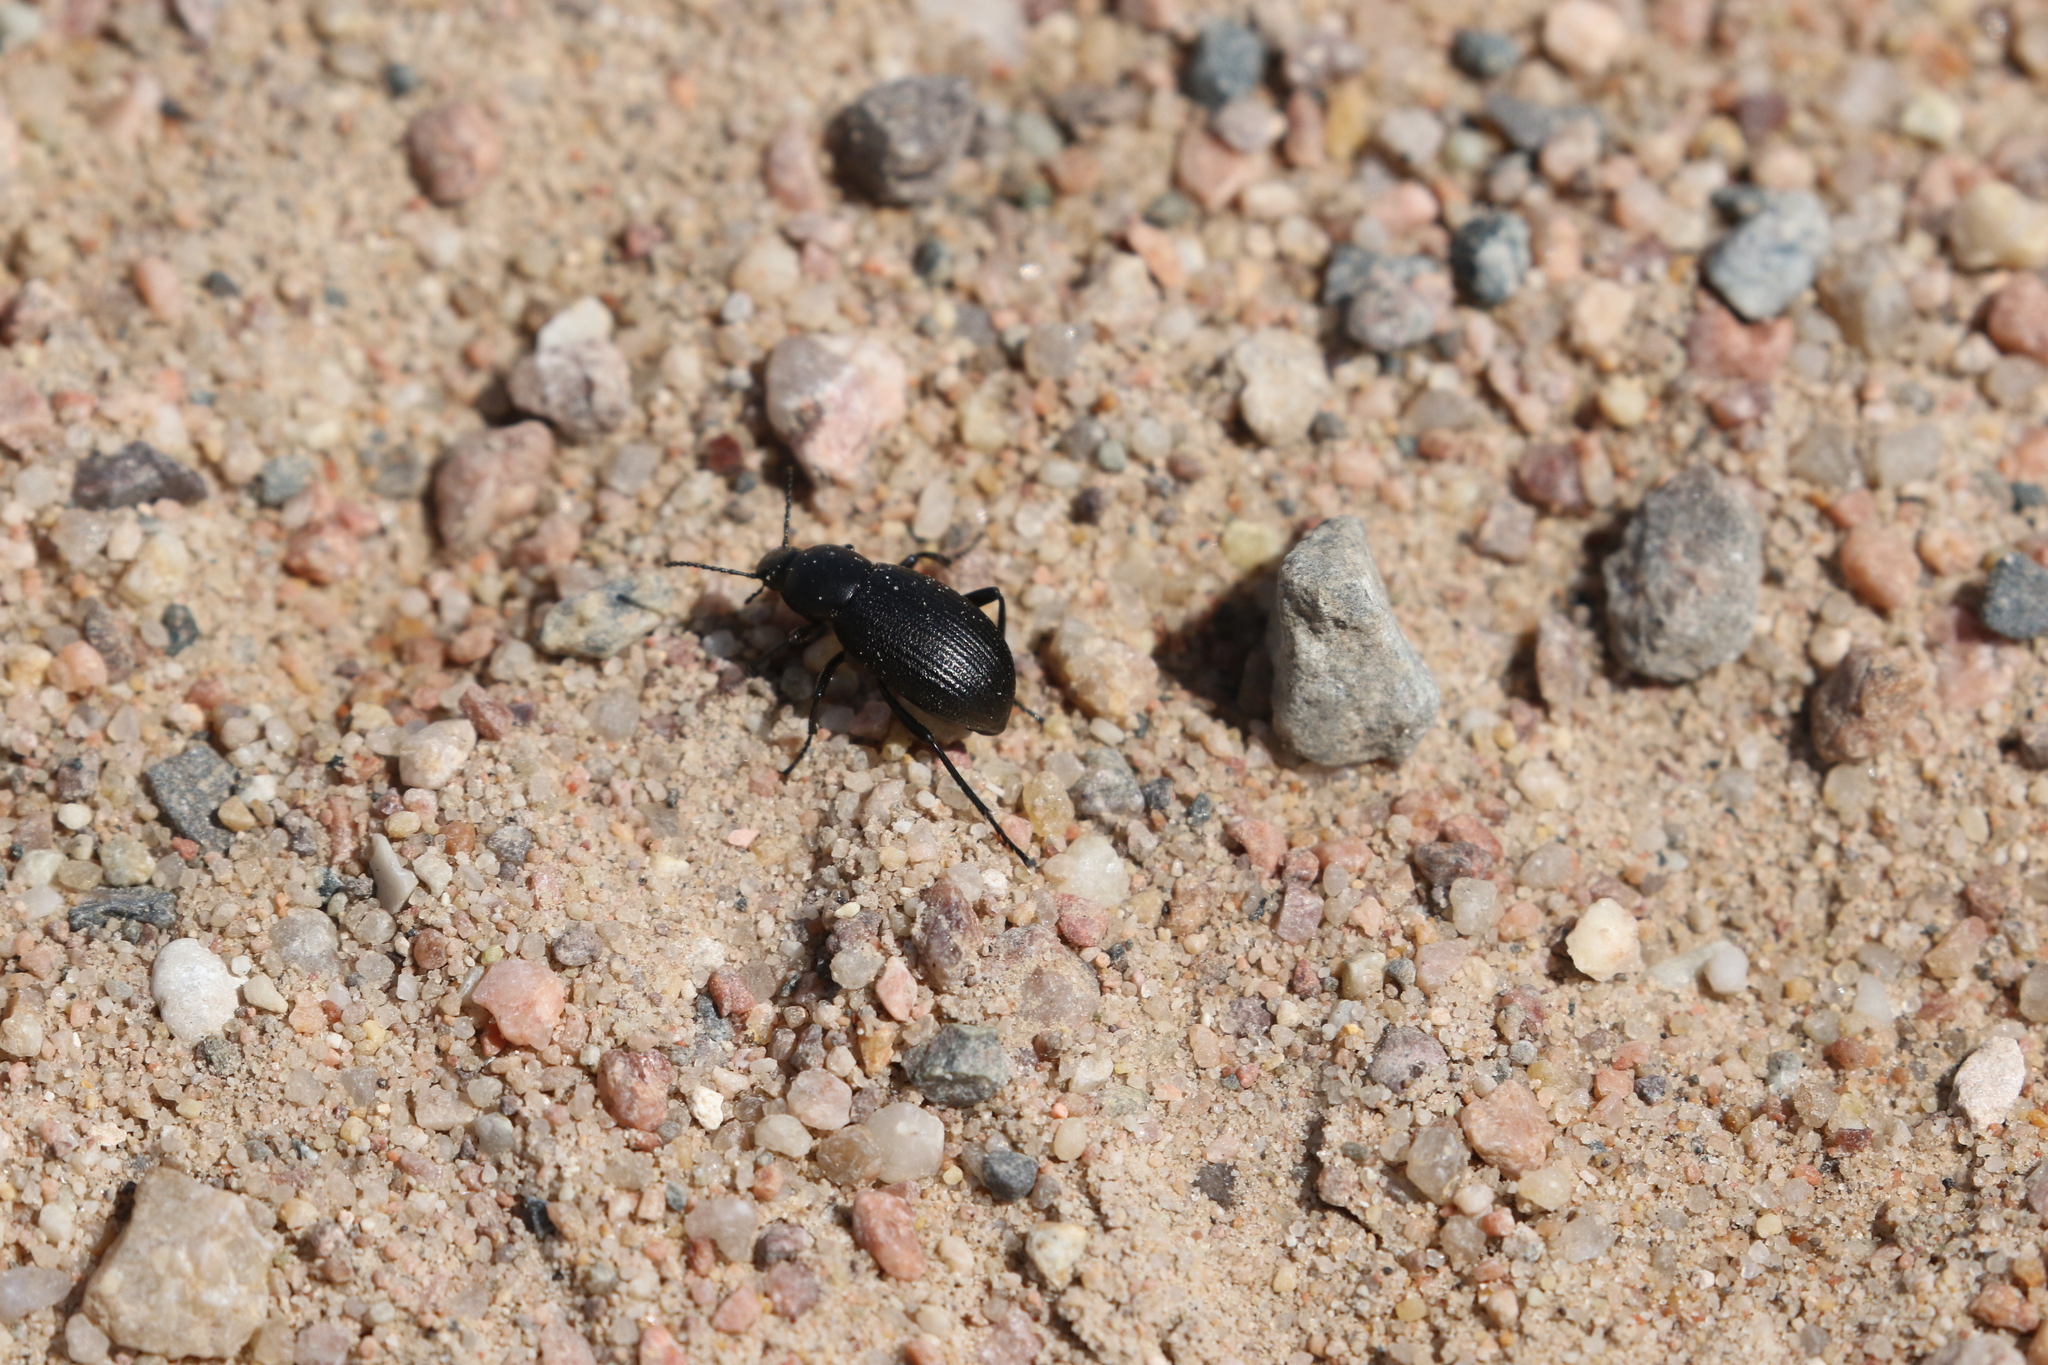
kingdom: Animalia
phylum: Arthropoda
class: Insecta
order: Coleoptera
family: Tenebrionidae
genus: Eleodes
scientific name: Eleodes carbonaria
